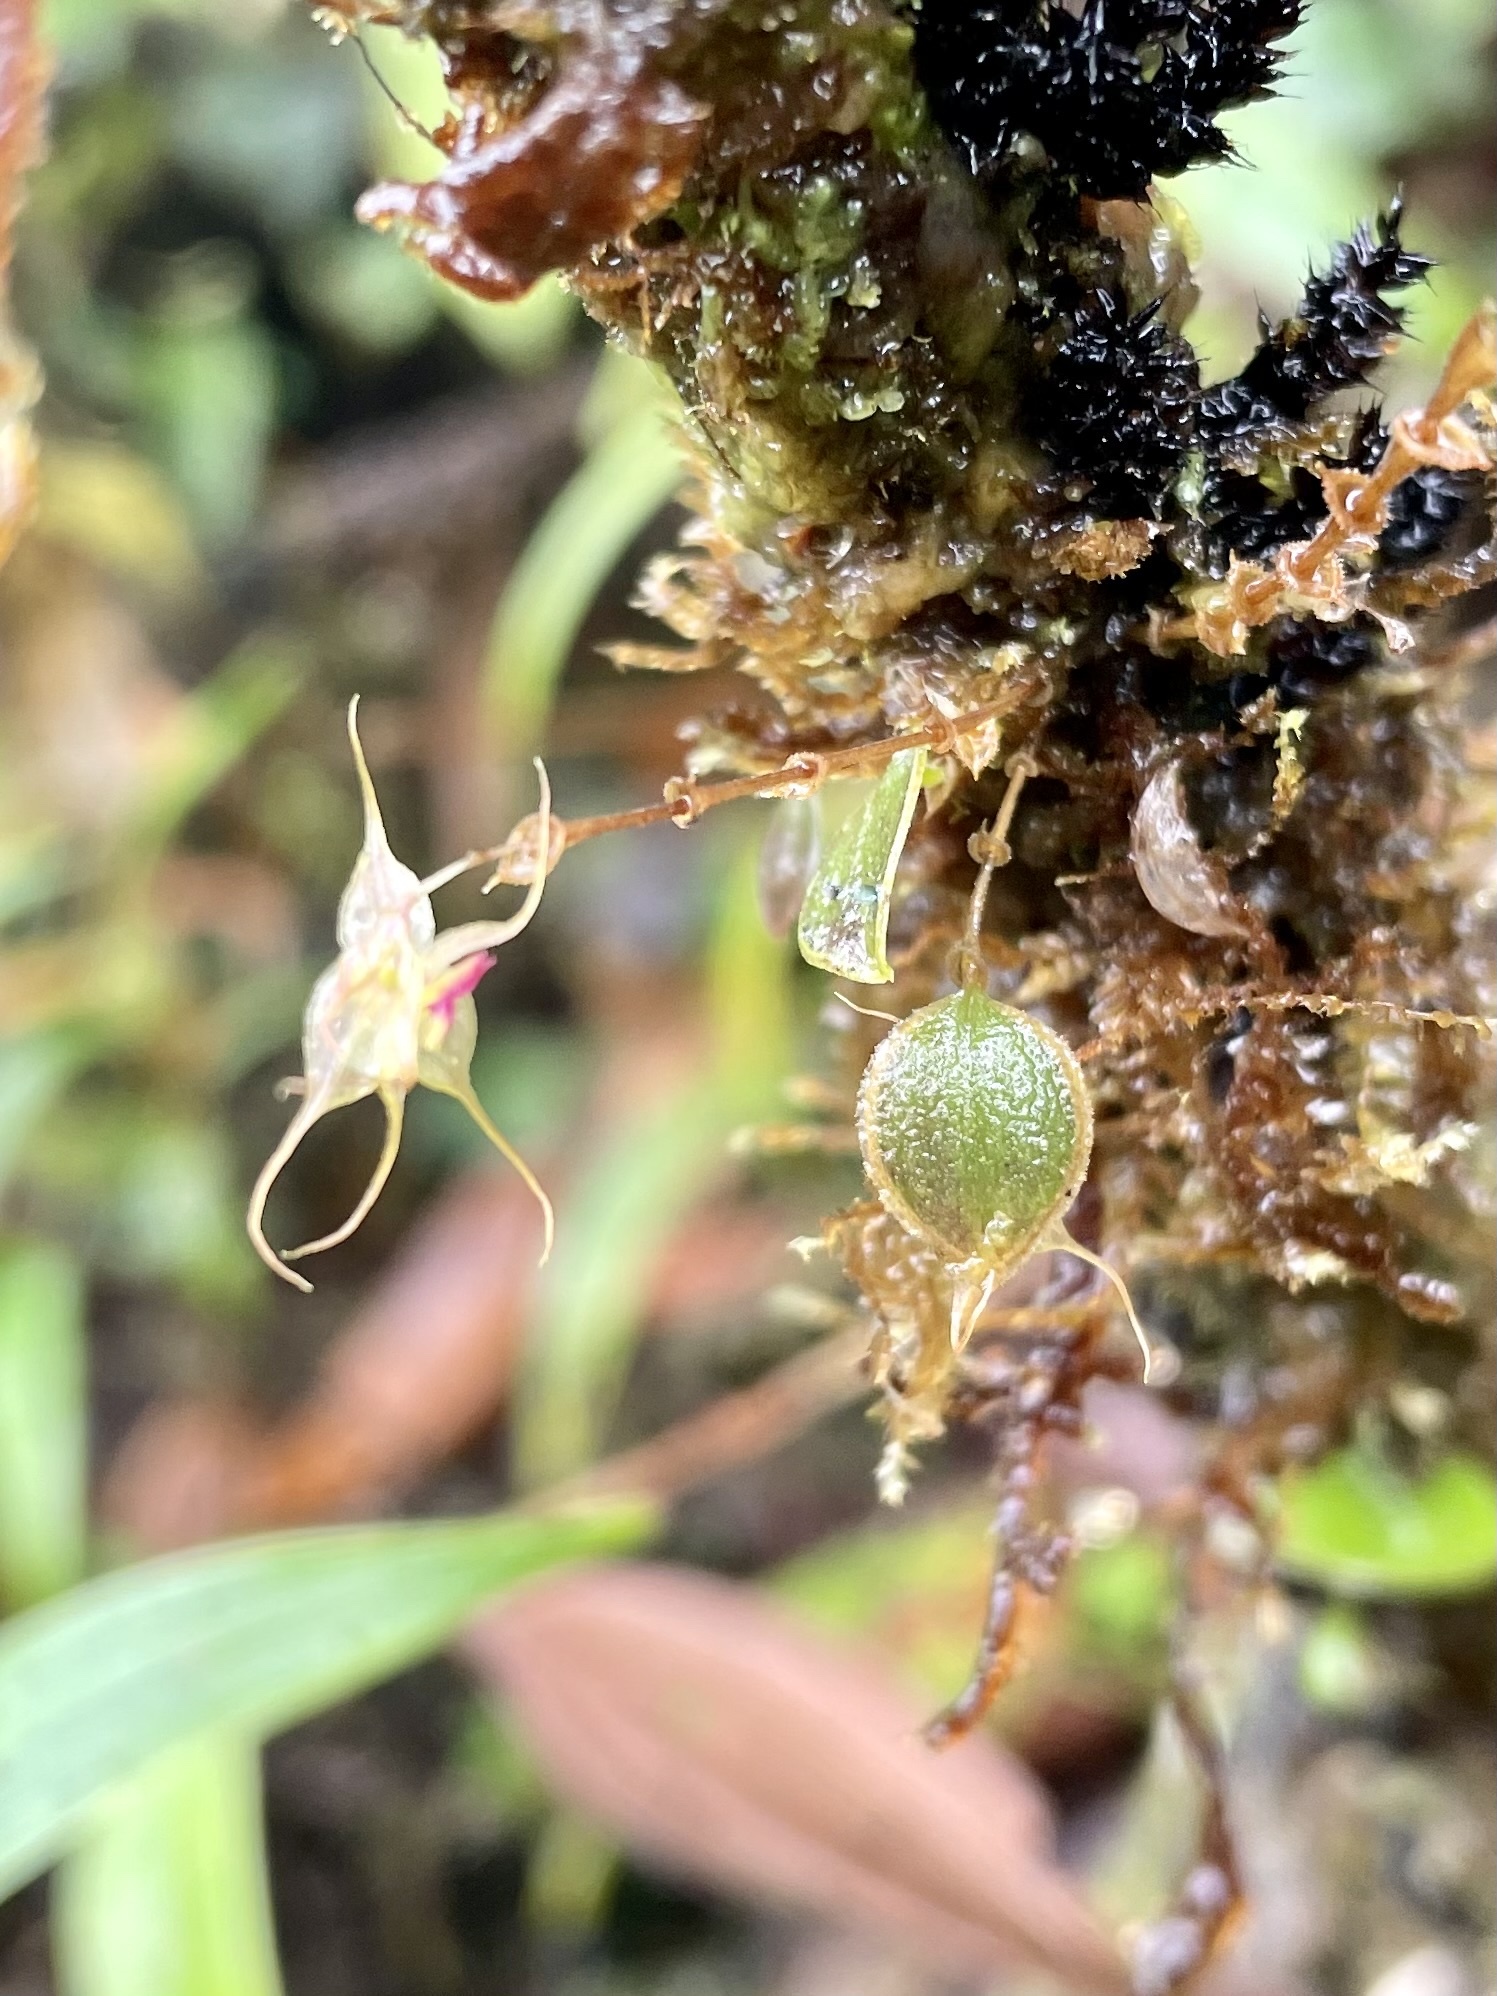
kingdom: Plantae
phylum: Tracheophyta
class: Liliopsida
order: Asparagales
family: Orchidaceae
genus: Lepanthes
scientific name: Lepanthes trimerinx
